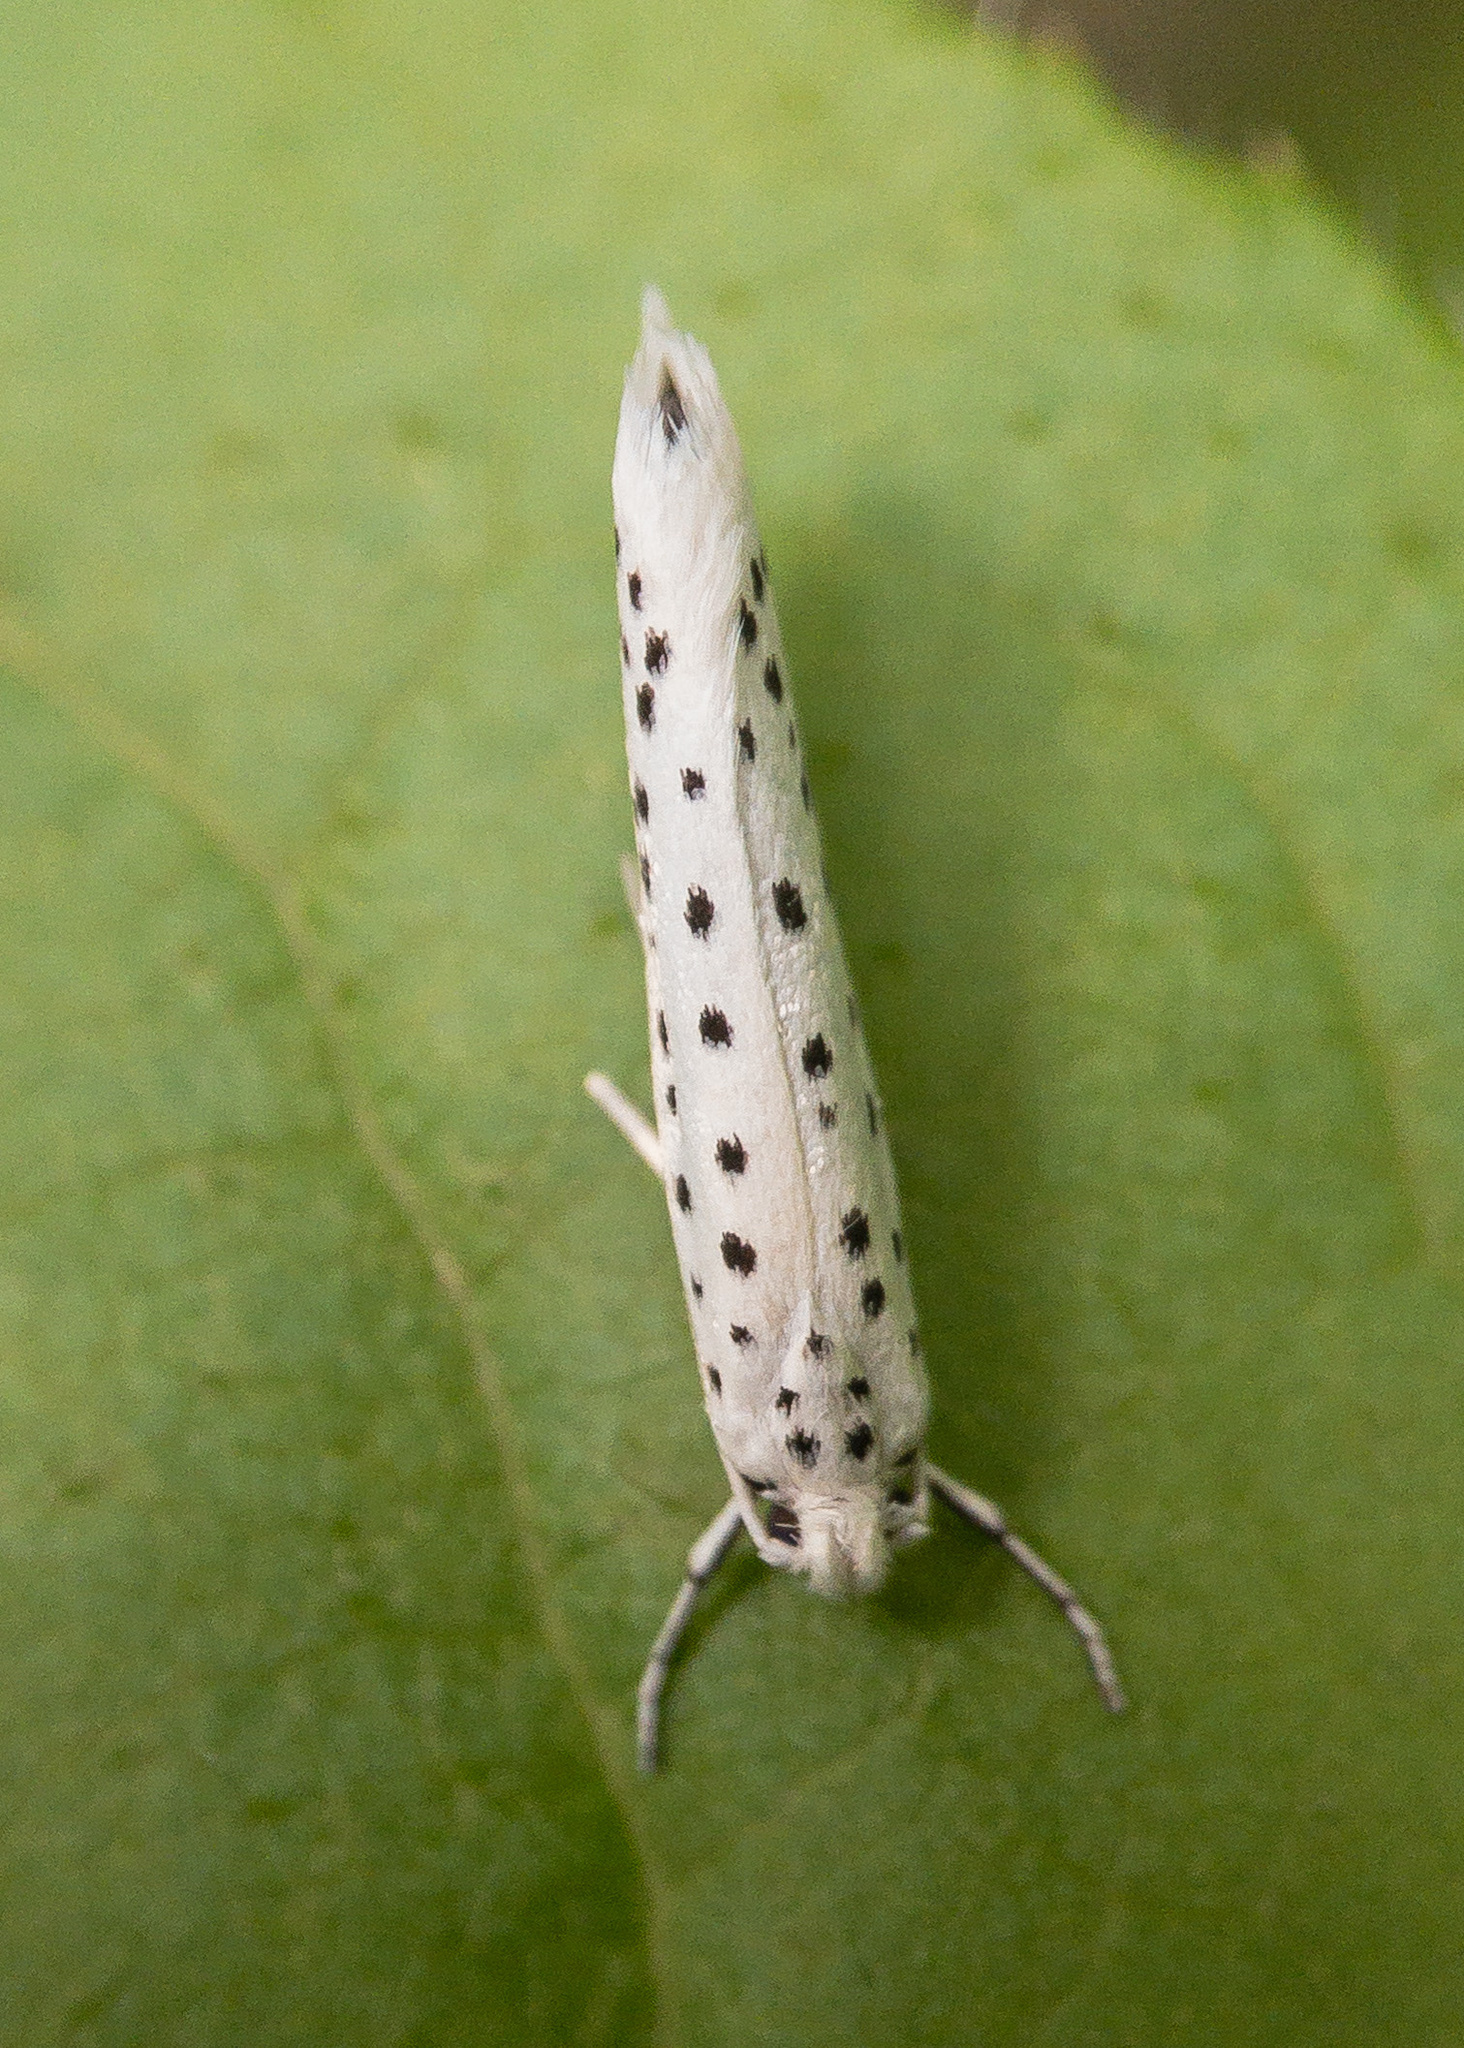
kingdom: Animalia
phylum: Arthropoda
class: Insecta
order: Lepidoptera
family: Yponomeutidae
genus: Yponomeuta
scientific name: Yponomeuta multipunctella
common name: American ermine moth
